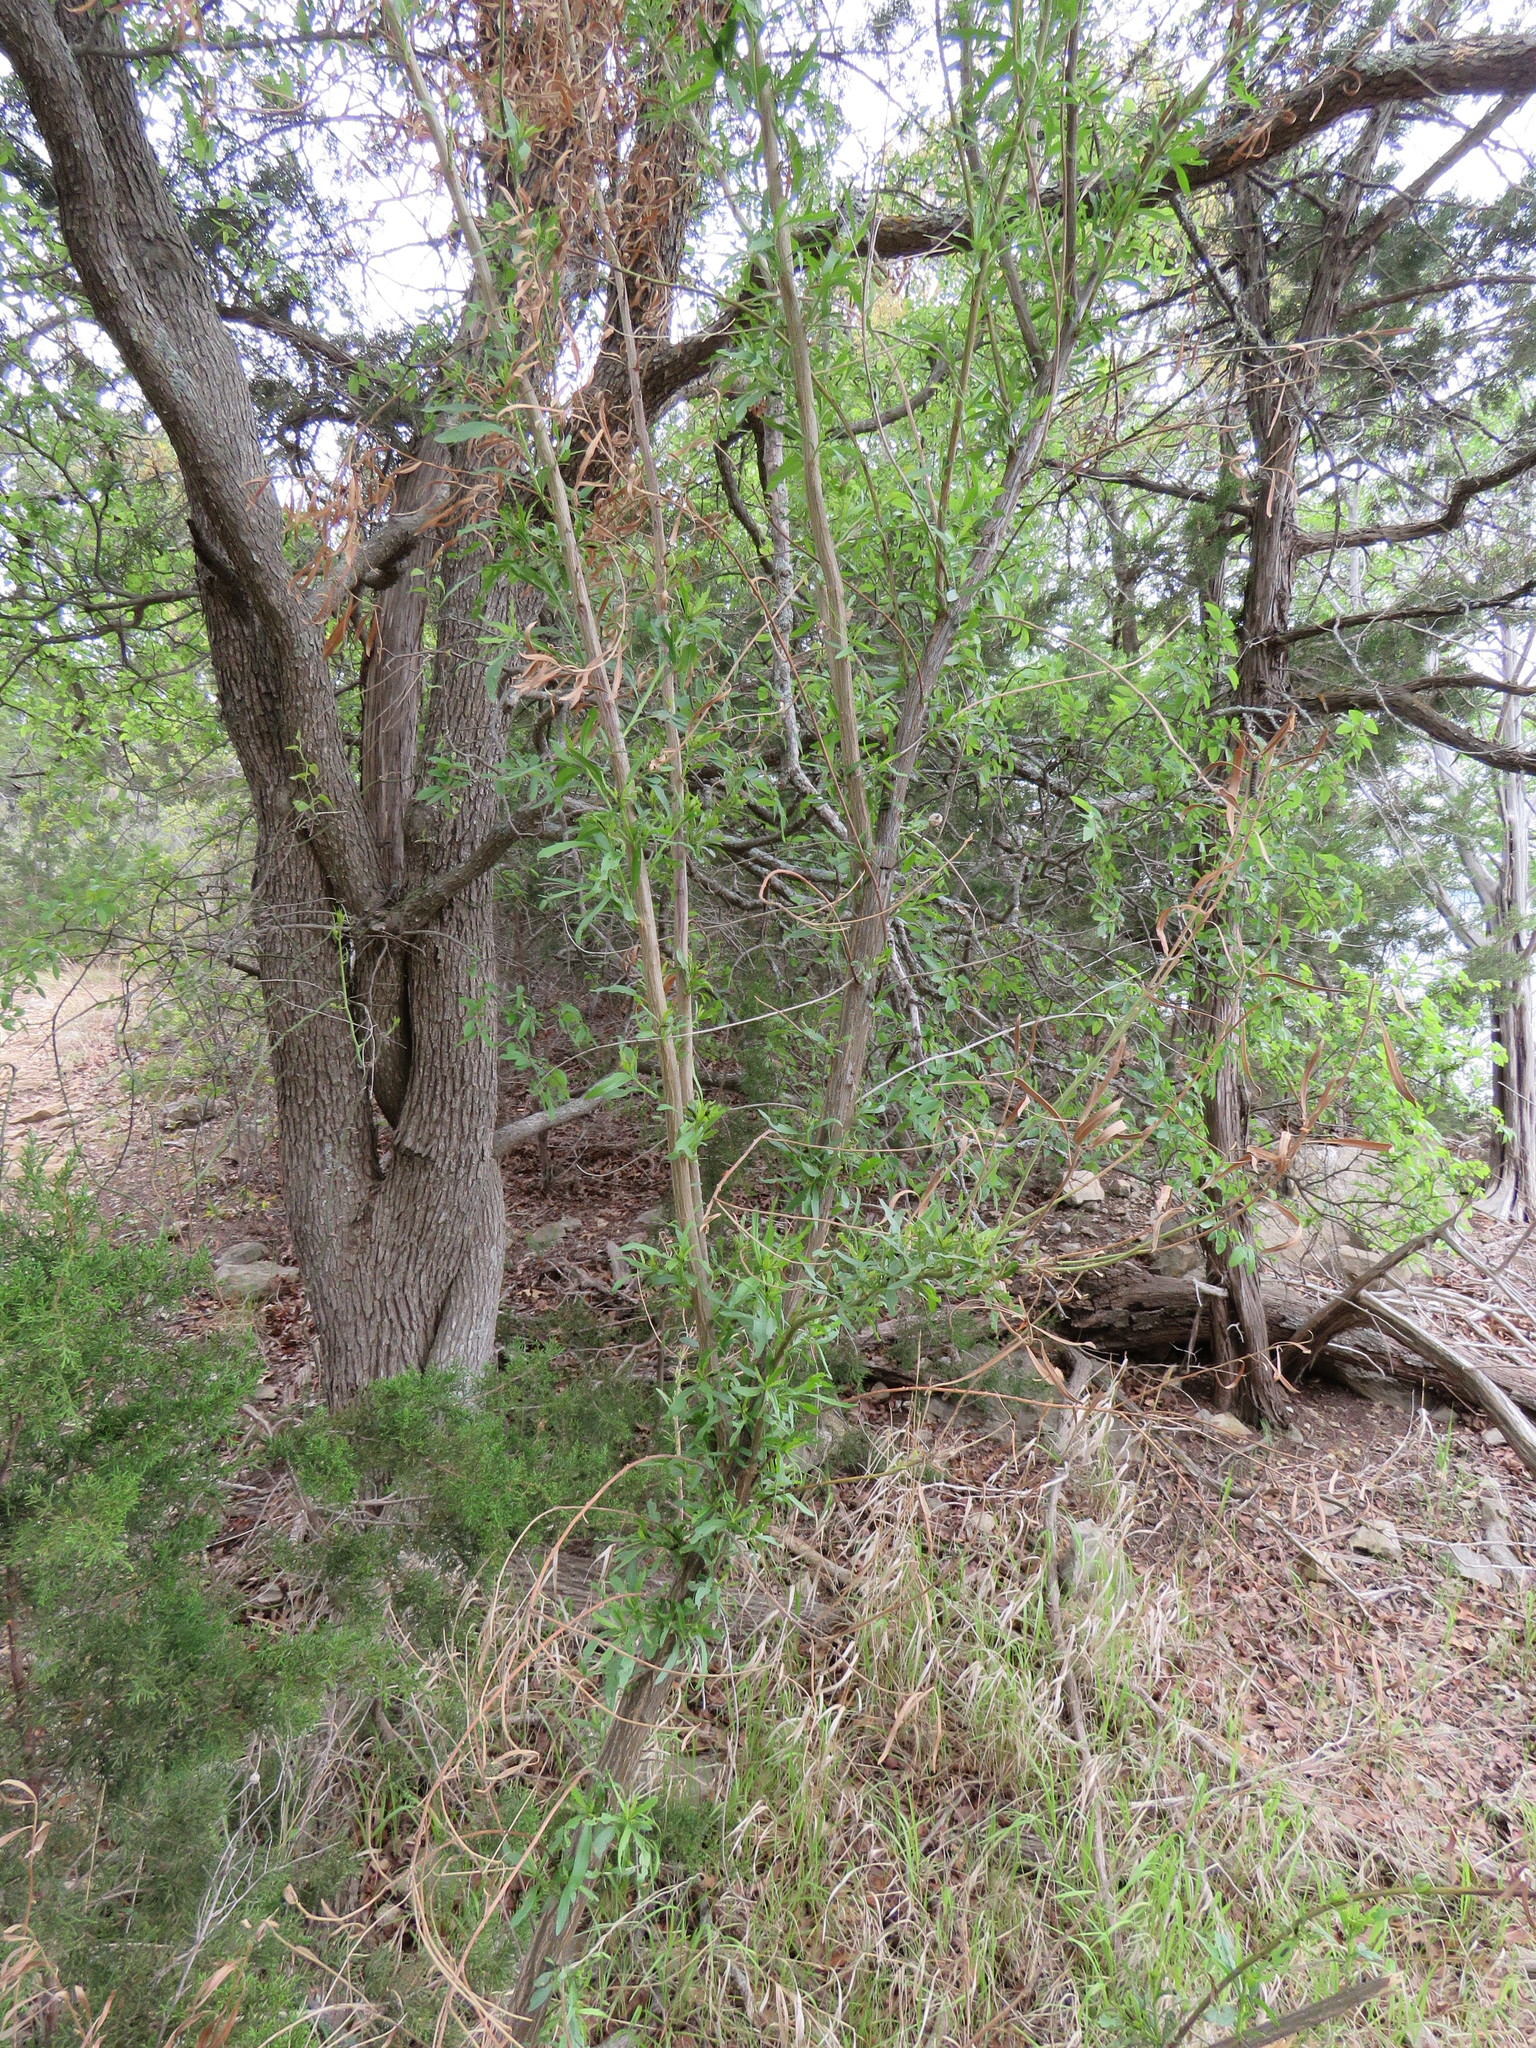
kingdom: Plantae
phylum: Tracheophyta
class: Magnoliopsida
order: Asterales
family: Asteraceae
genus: Baccharis
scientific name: Baccharis neglecta
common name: Roosevelt-weed
